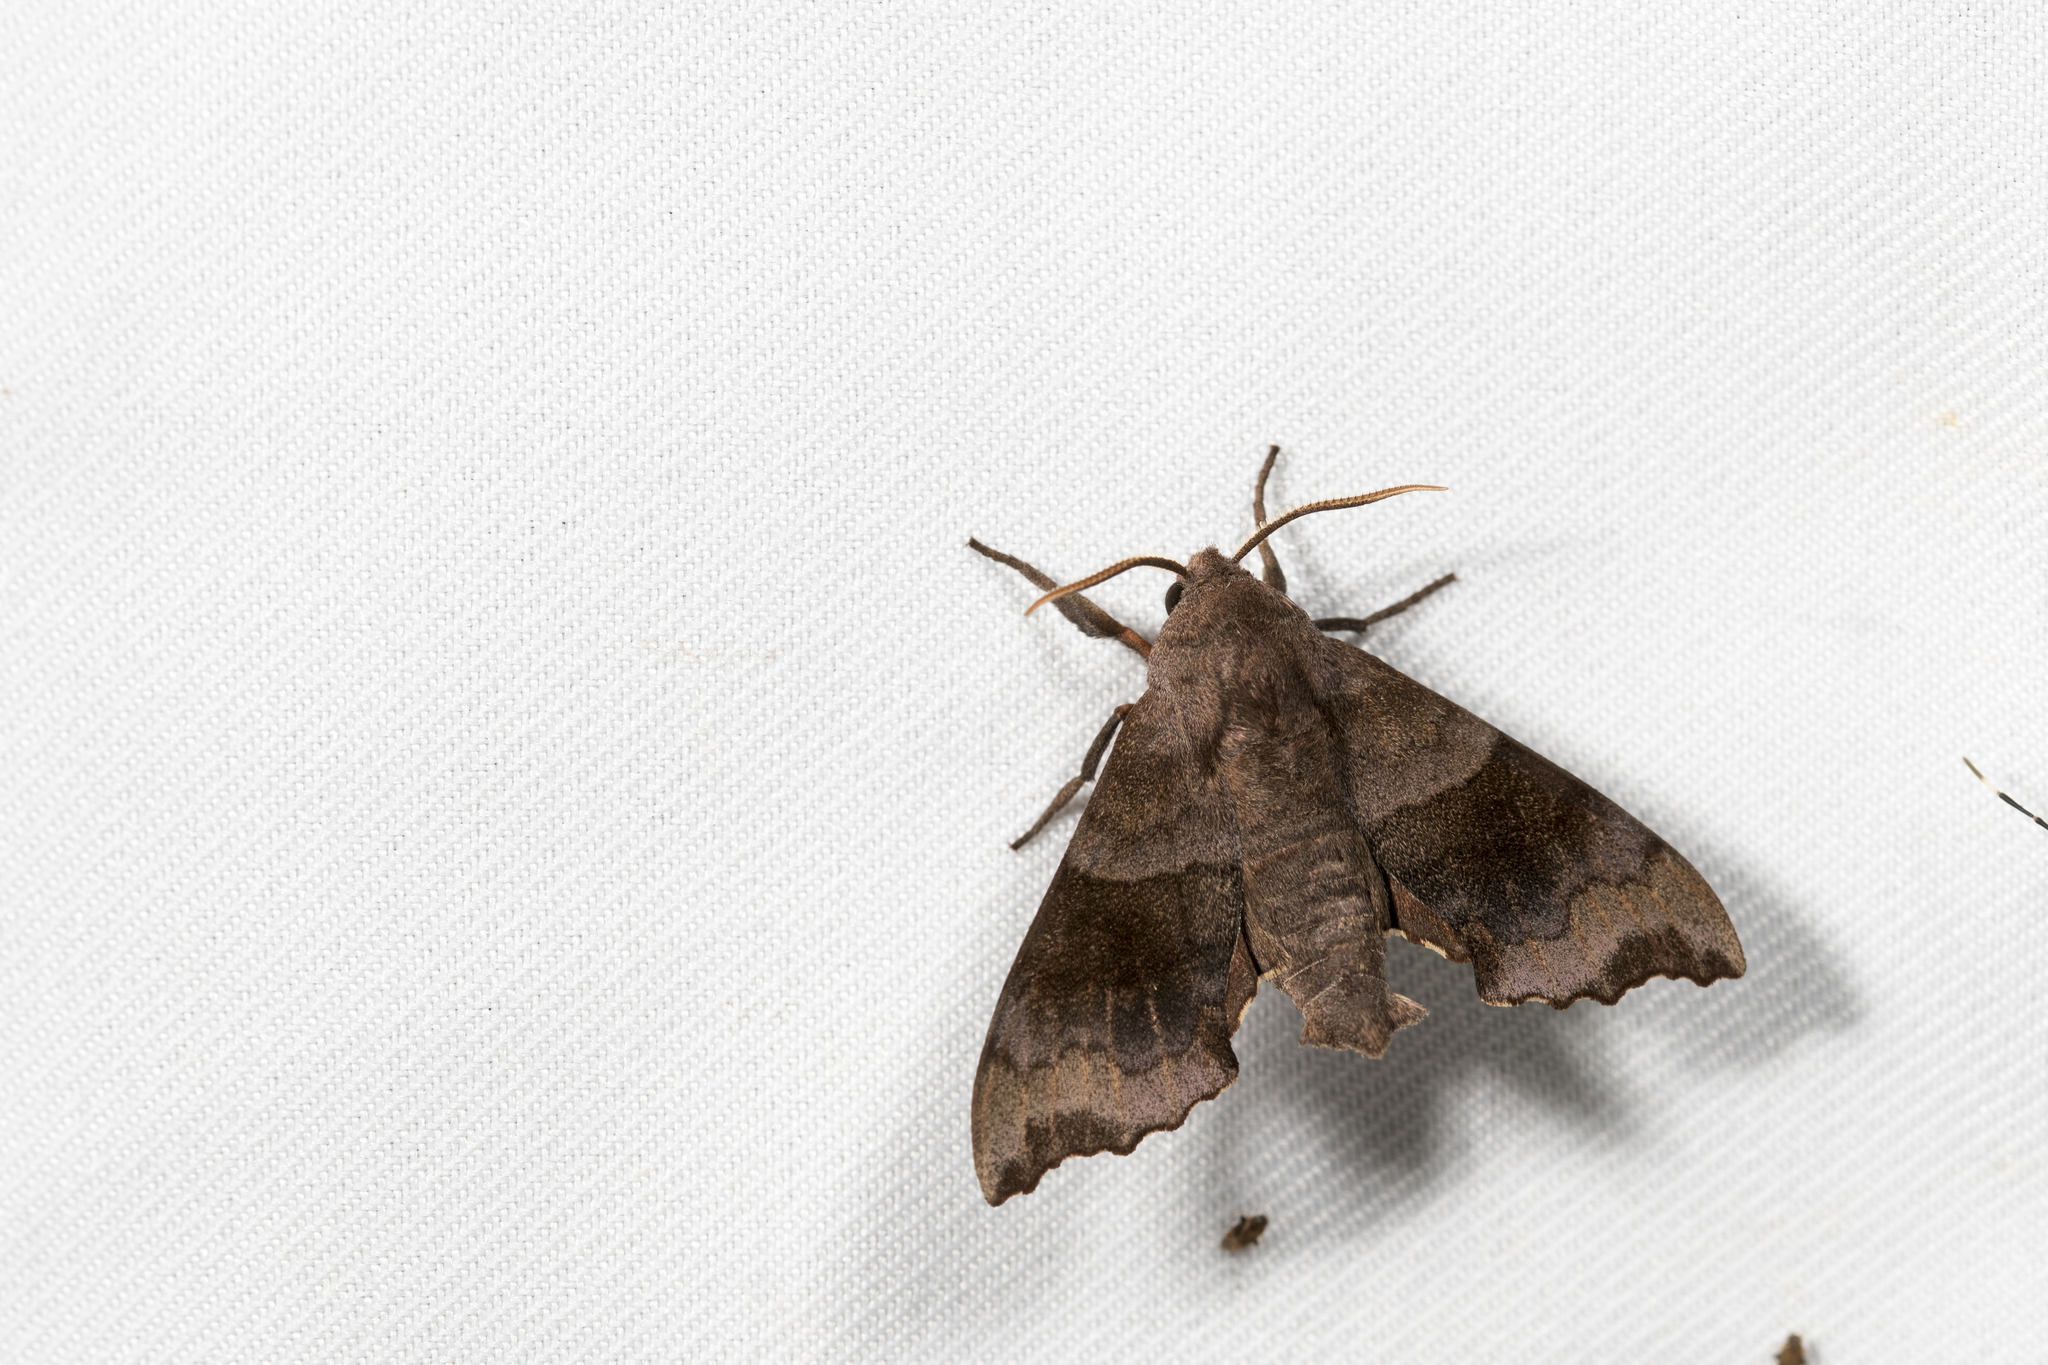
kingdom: Animalia
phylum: Arthropoda
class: Insecta
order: Lepidoptera
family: Sphingidae
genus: Cypoides
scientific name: Cypoides chinensis
